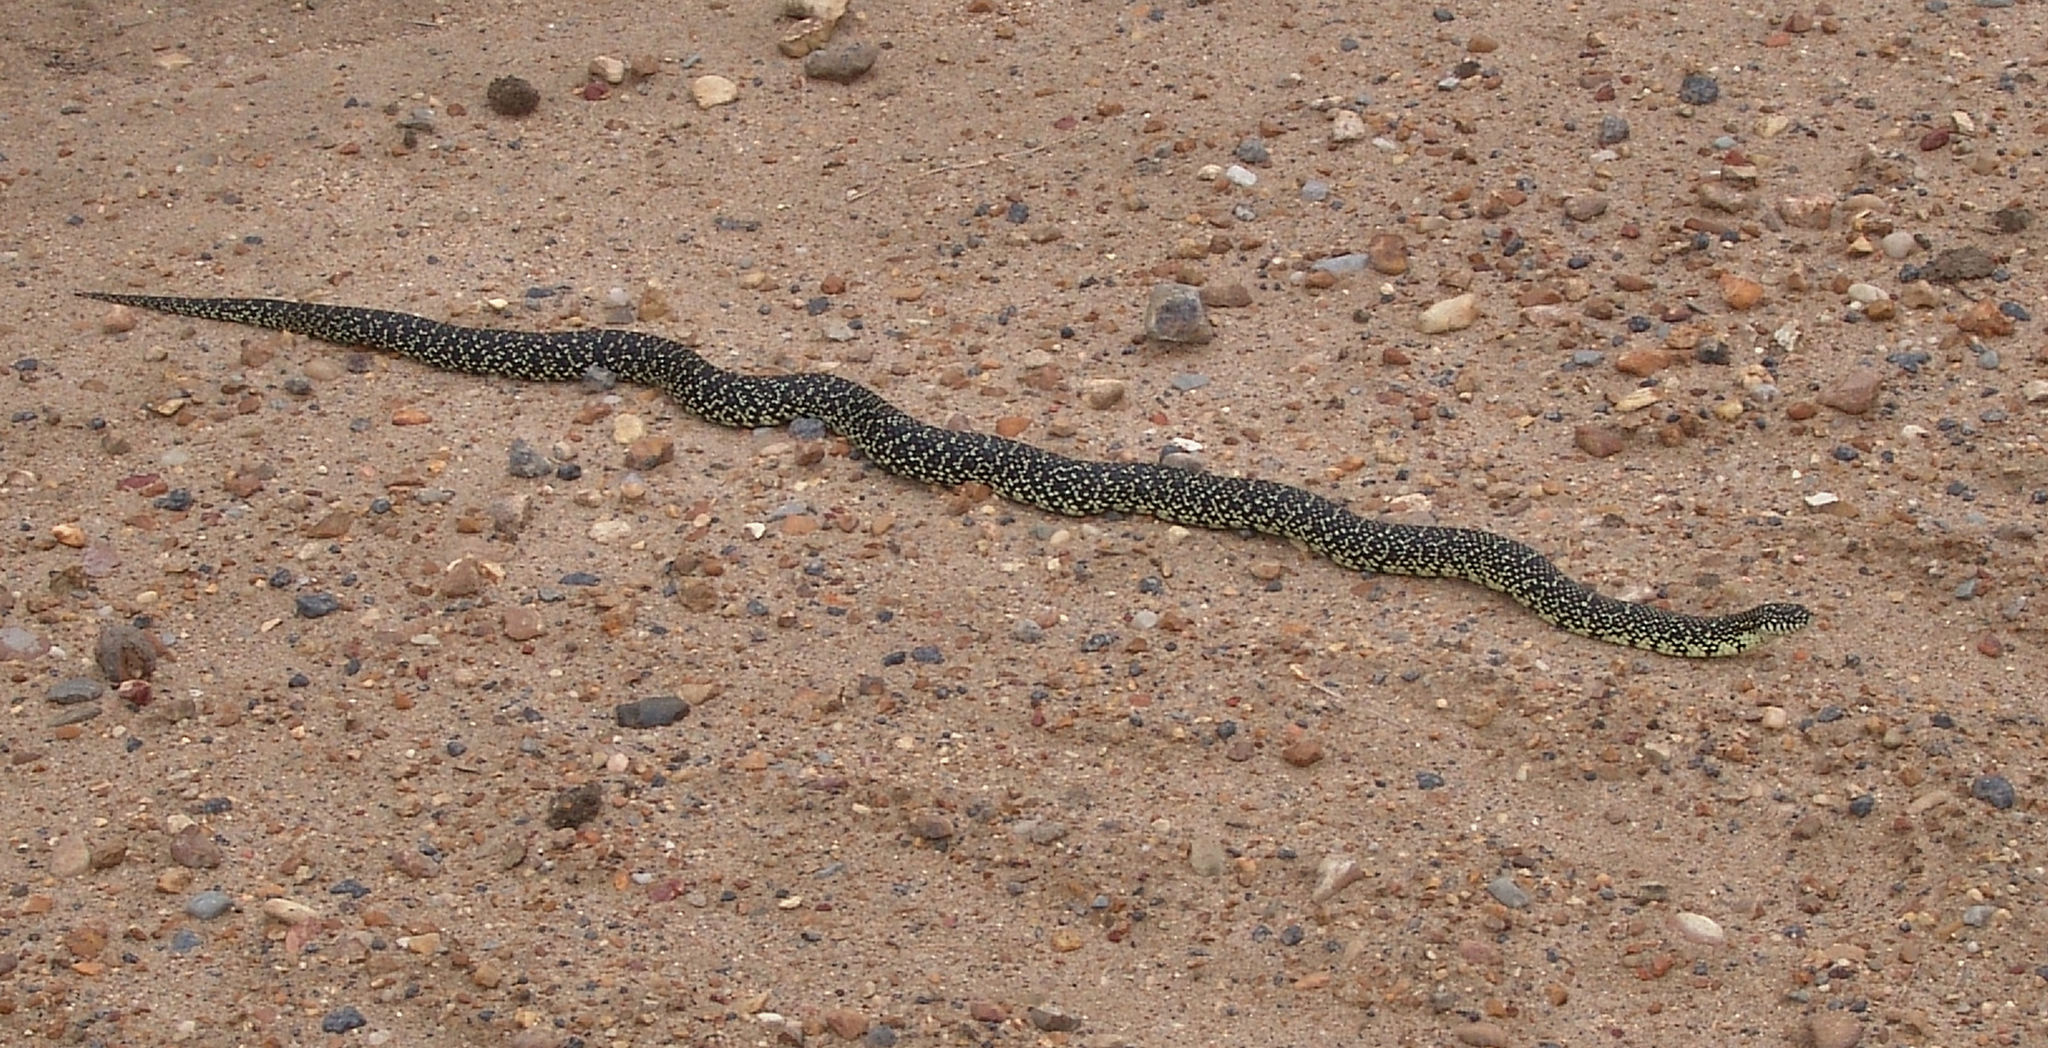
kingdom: Animalia
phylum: Chordata
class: Squamata
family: Colubridae
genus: Lampropeltis
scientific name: Lampropeltis holbrooki
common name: Speckled kingsnake
